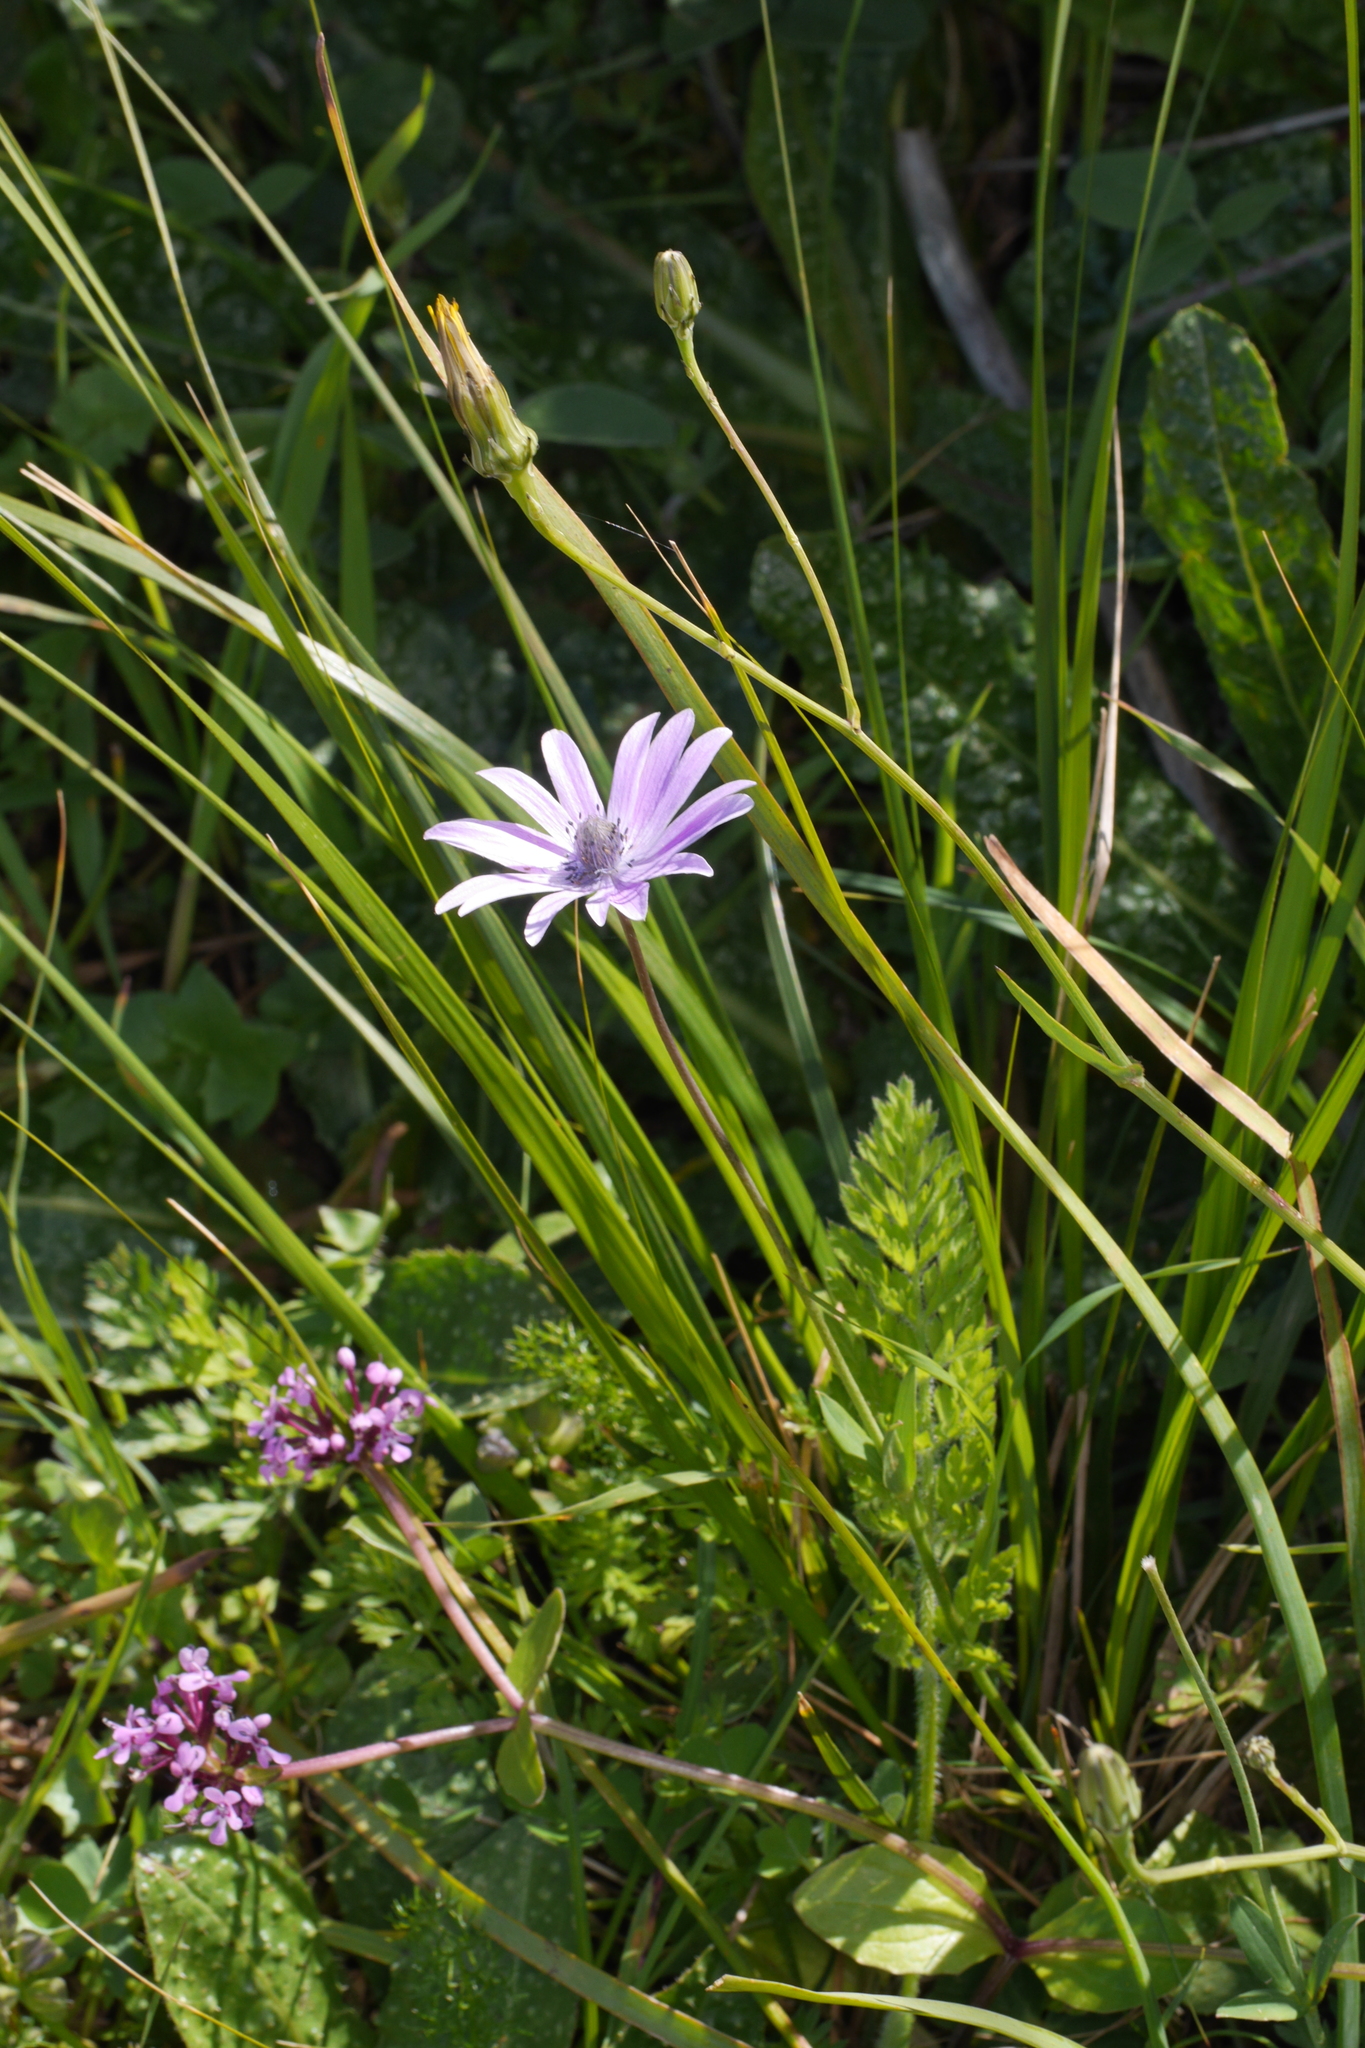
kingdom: Plantae
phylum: Tracheophyta
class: Magnoliopsida
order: Ranunculales
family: Ranunculaceae
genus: Anemone
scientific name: Anemone hortensis
